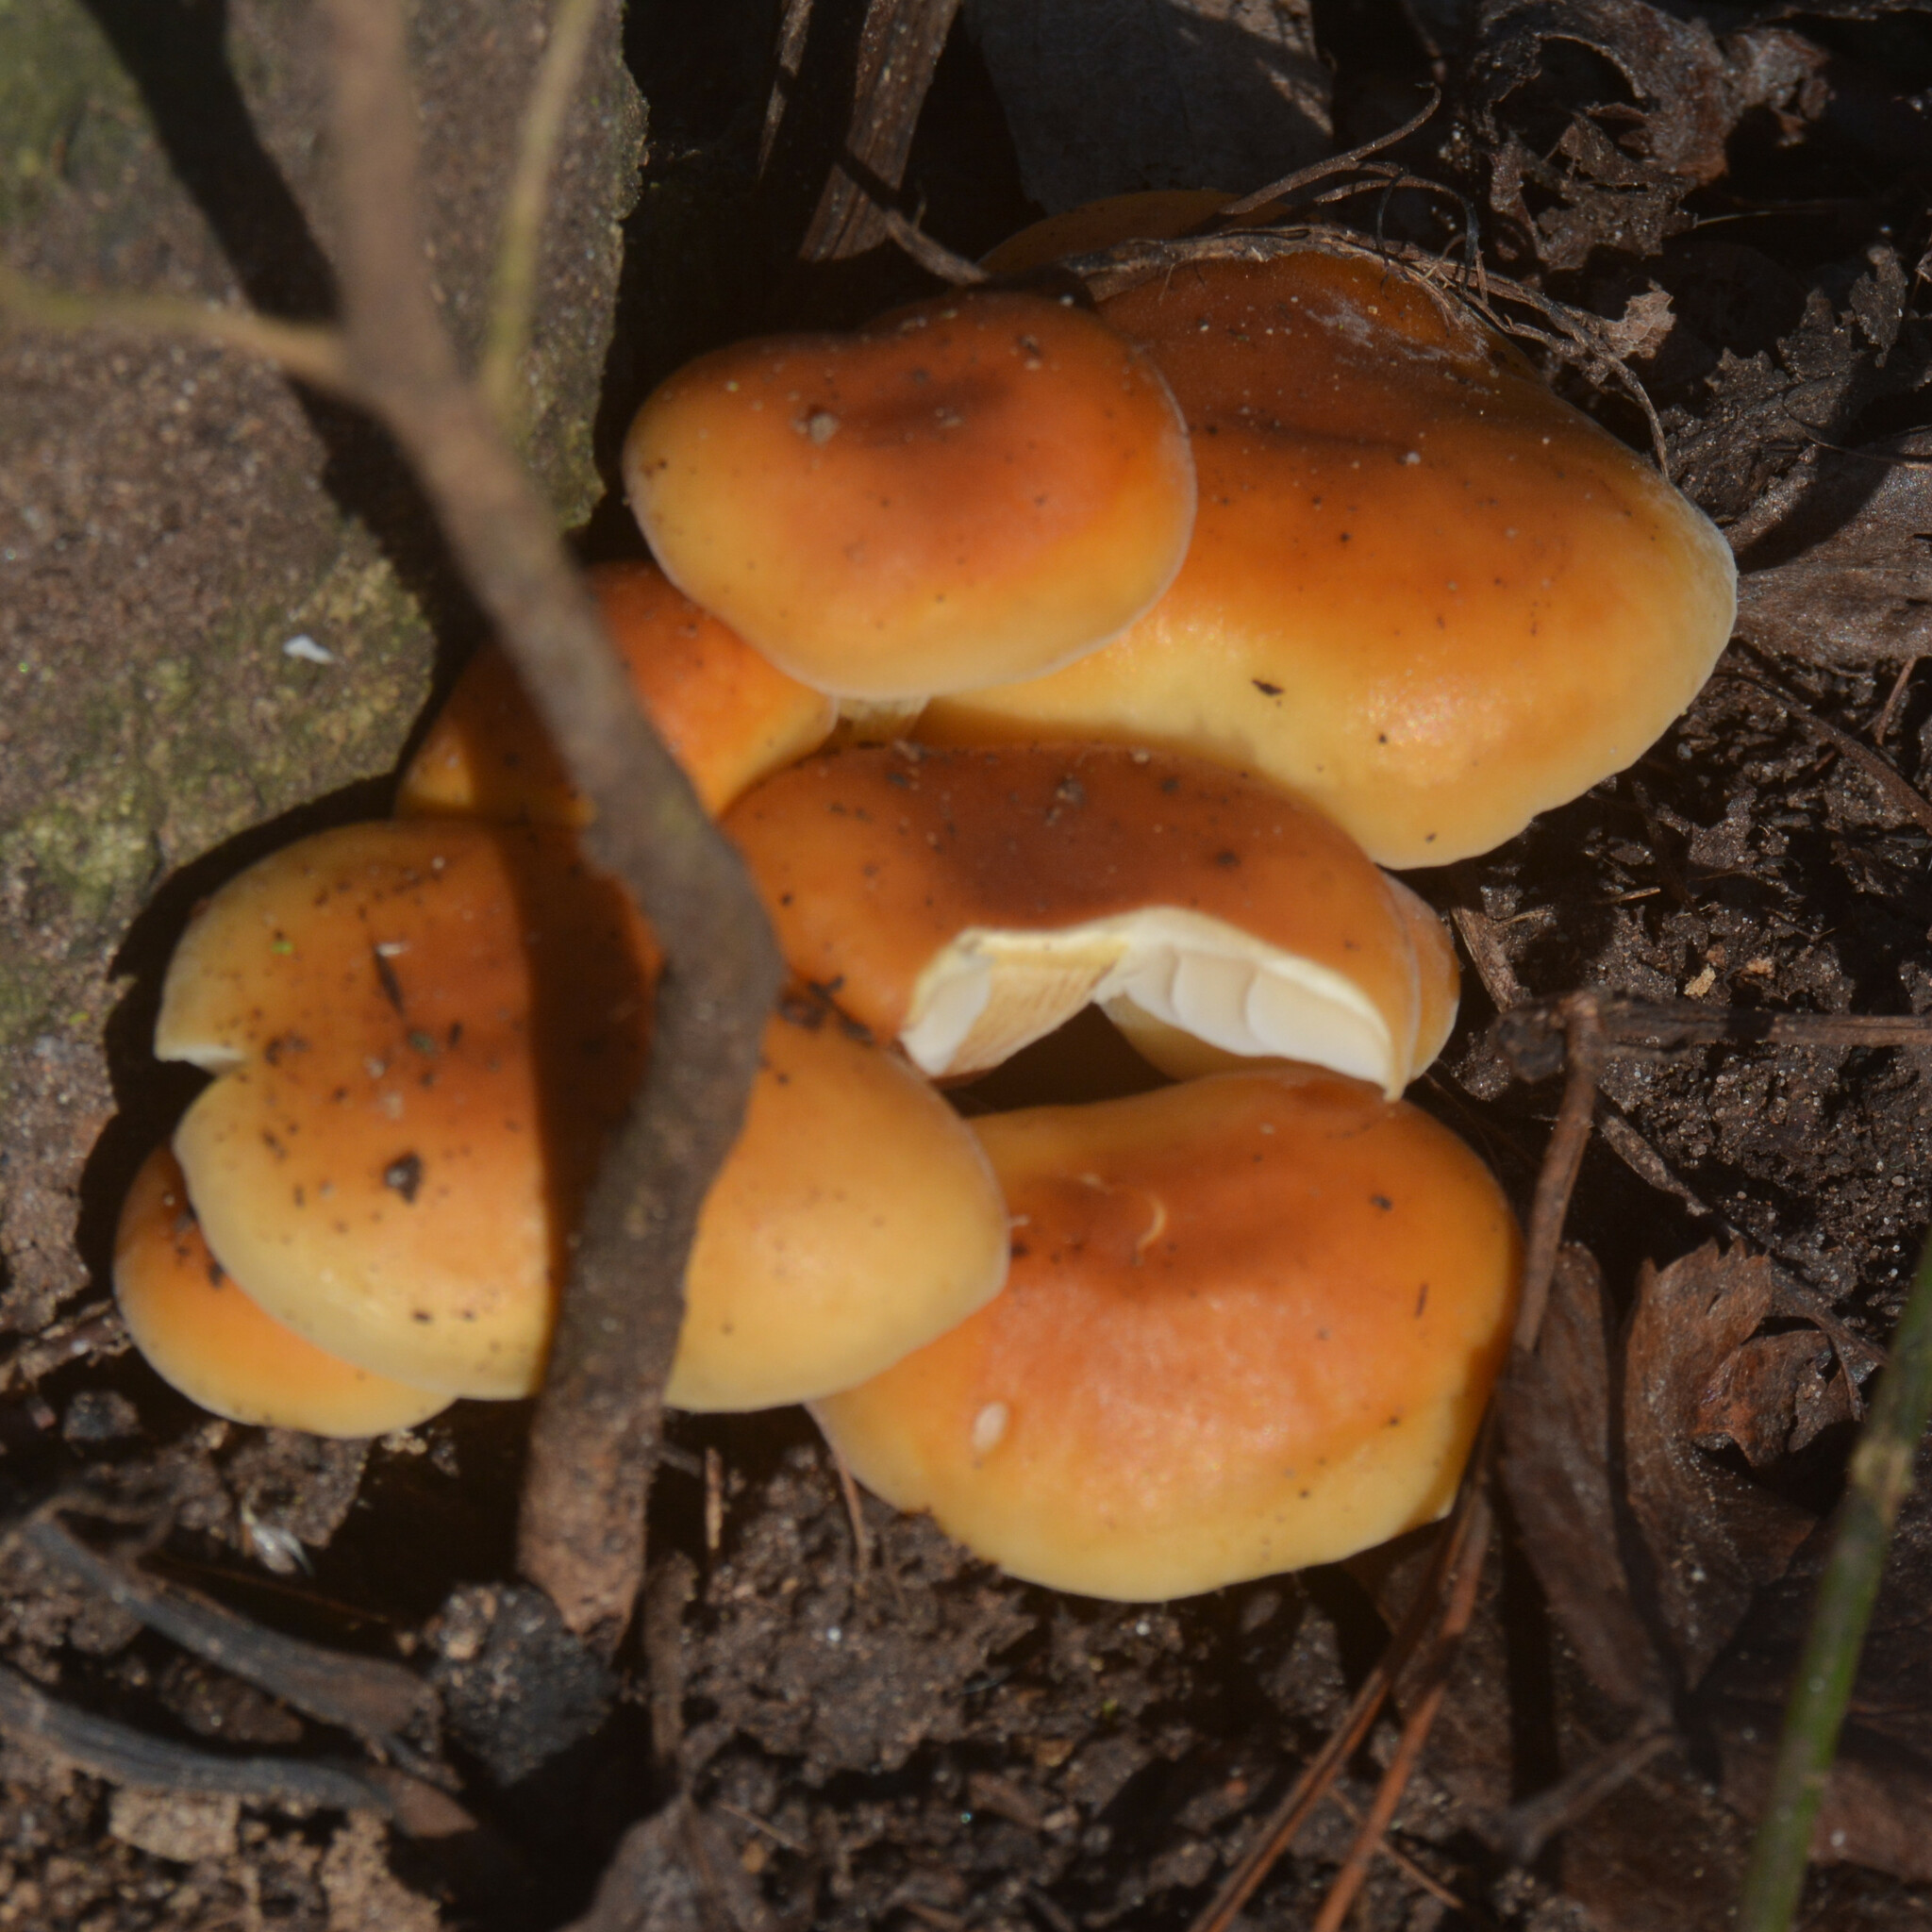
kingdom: Fungi
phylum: Basidiomycota
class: Agaricomycetes
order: Agaricales
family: Physalacriaceae
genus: Flammulina
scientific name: Flammulina
